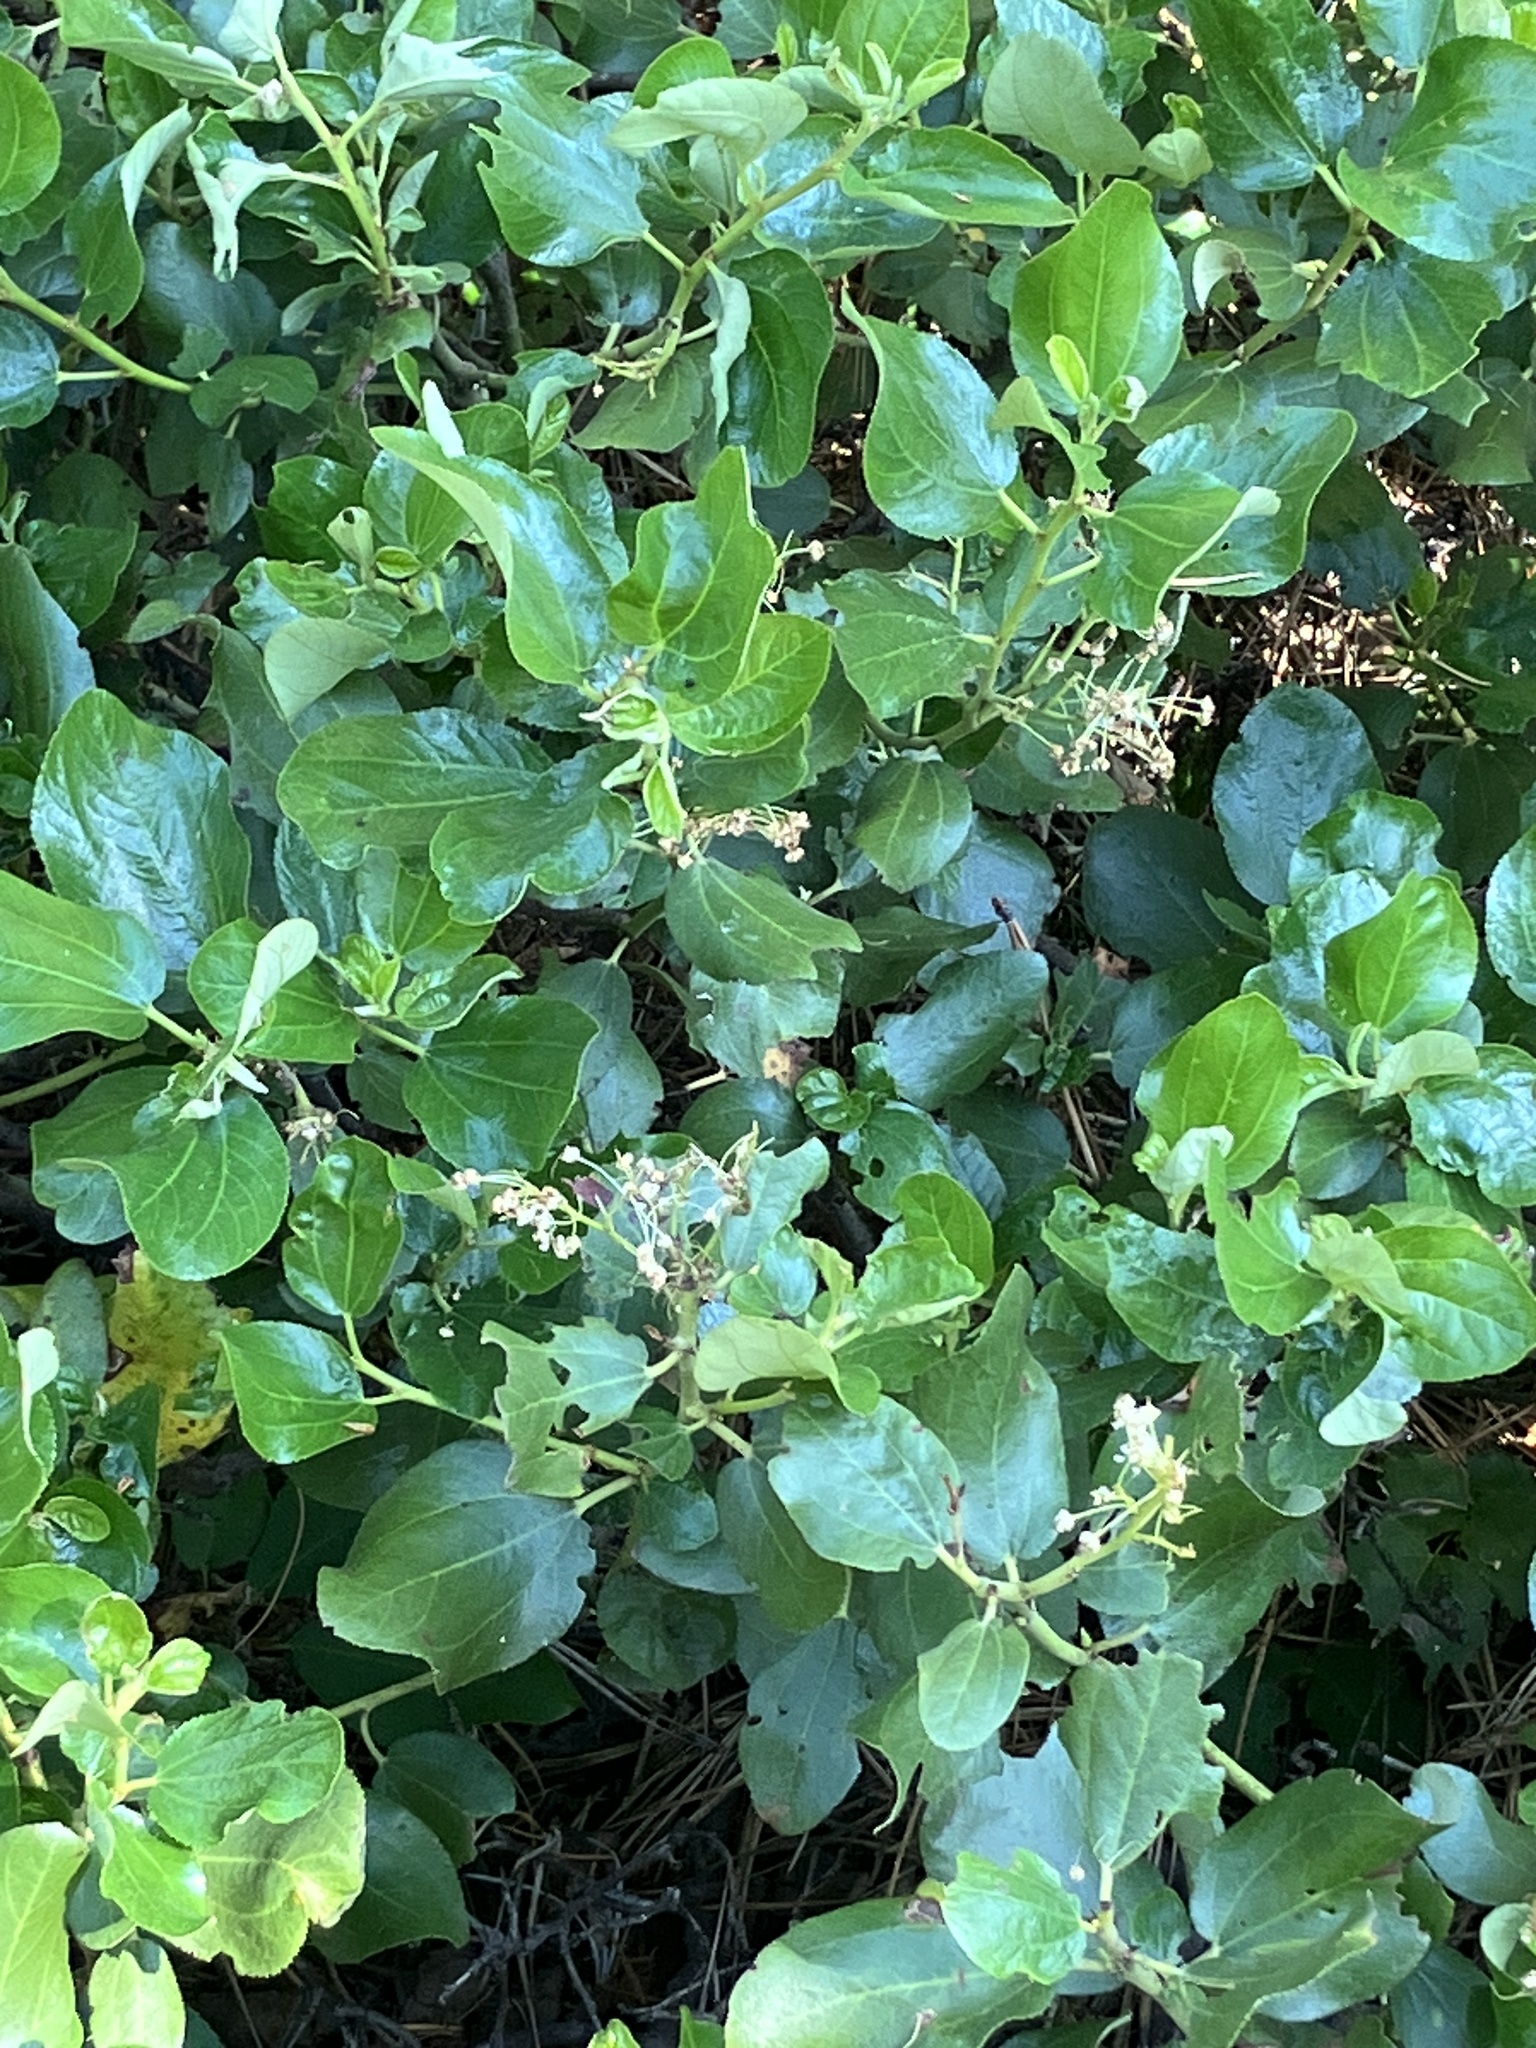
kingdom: Plantae
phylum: Tracheophyta
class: Magnoliopsida
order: Rosales
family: Rhamnaceae
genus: Ceanothus
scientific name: Ceanothus velutinus
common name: Snowbrush
